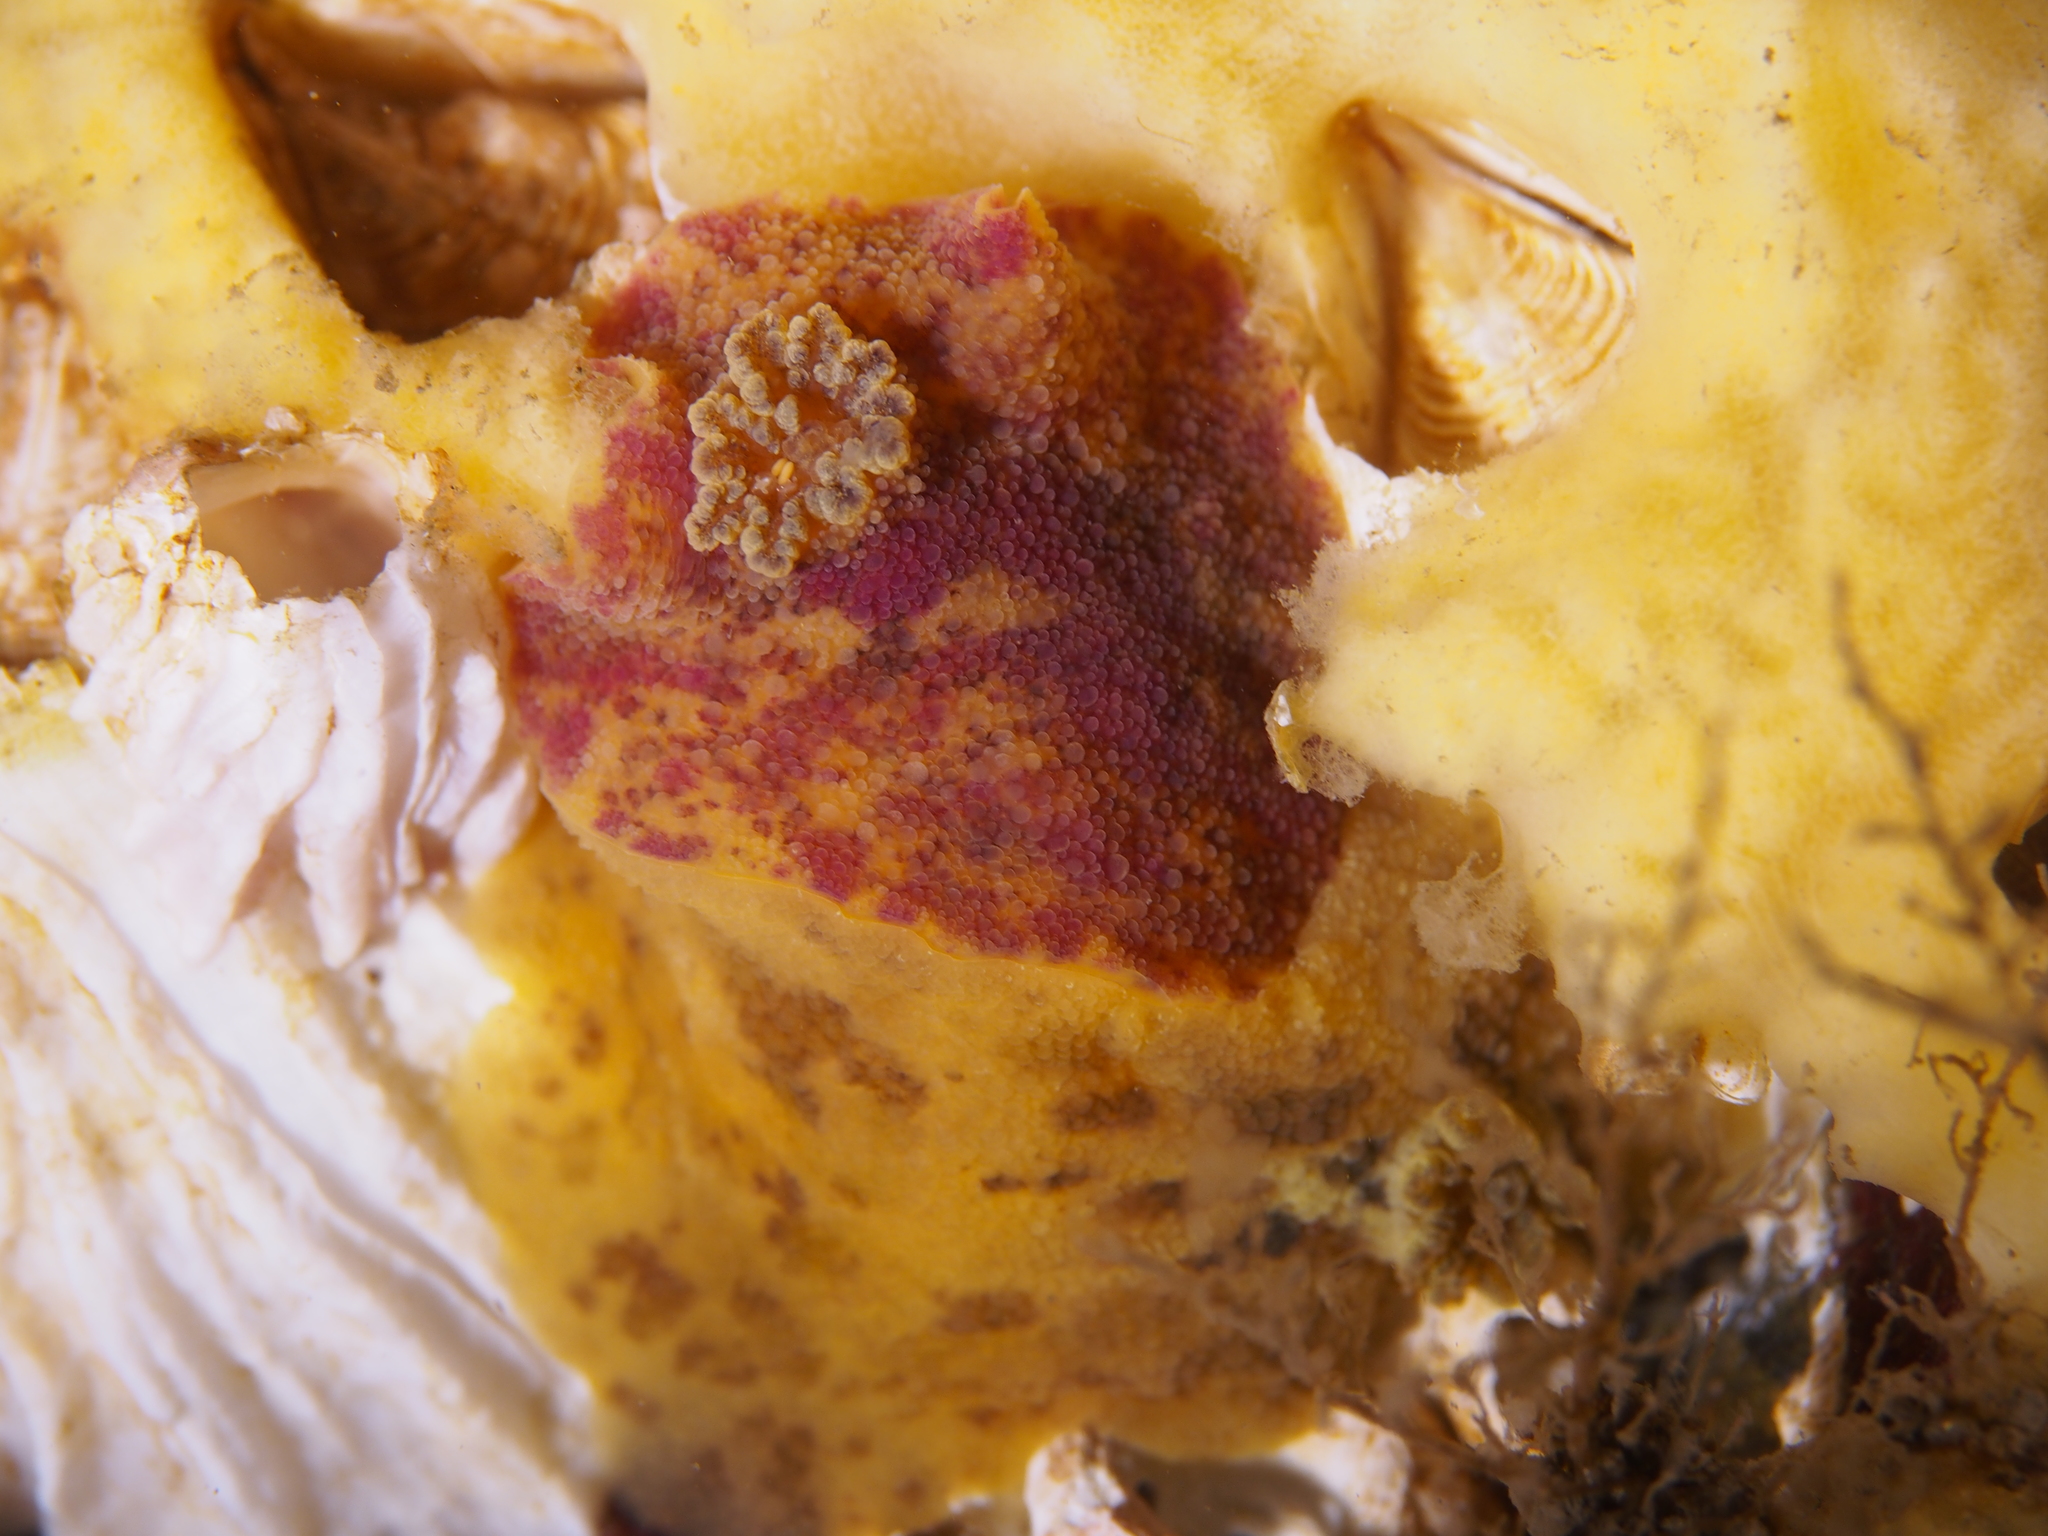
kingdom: Animalia
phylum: Mollusca
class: Gastropoda
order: Nudibranchia
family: Dorididae
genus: Doris
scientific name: Doris pseudoargus
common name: Sea lemon
